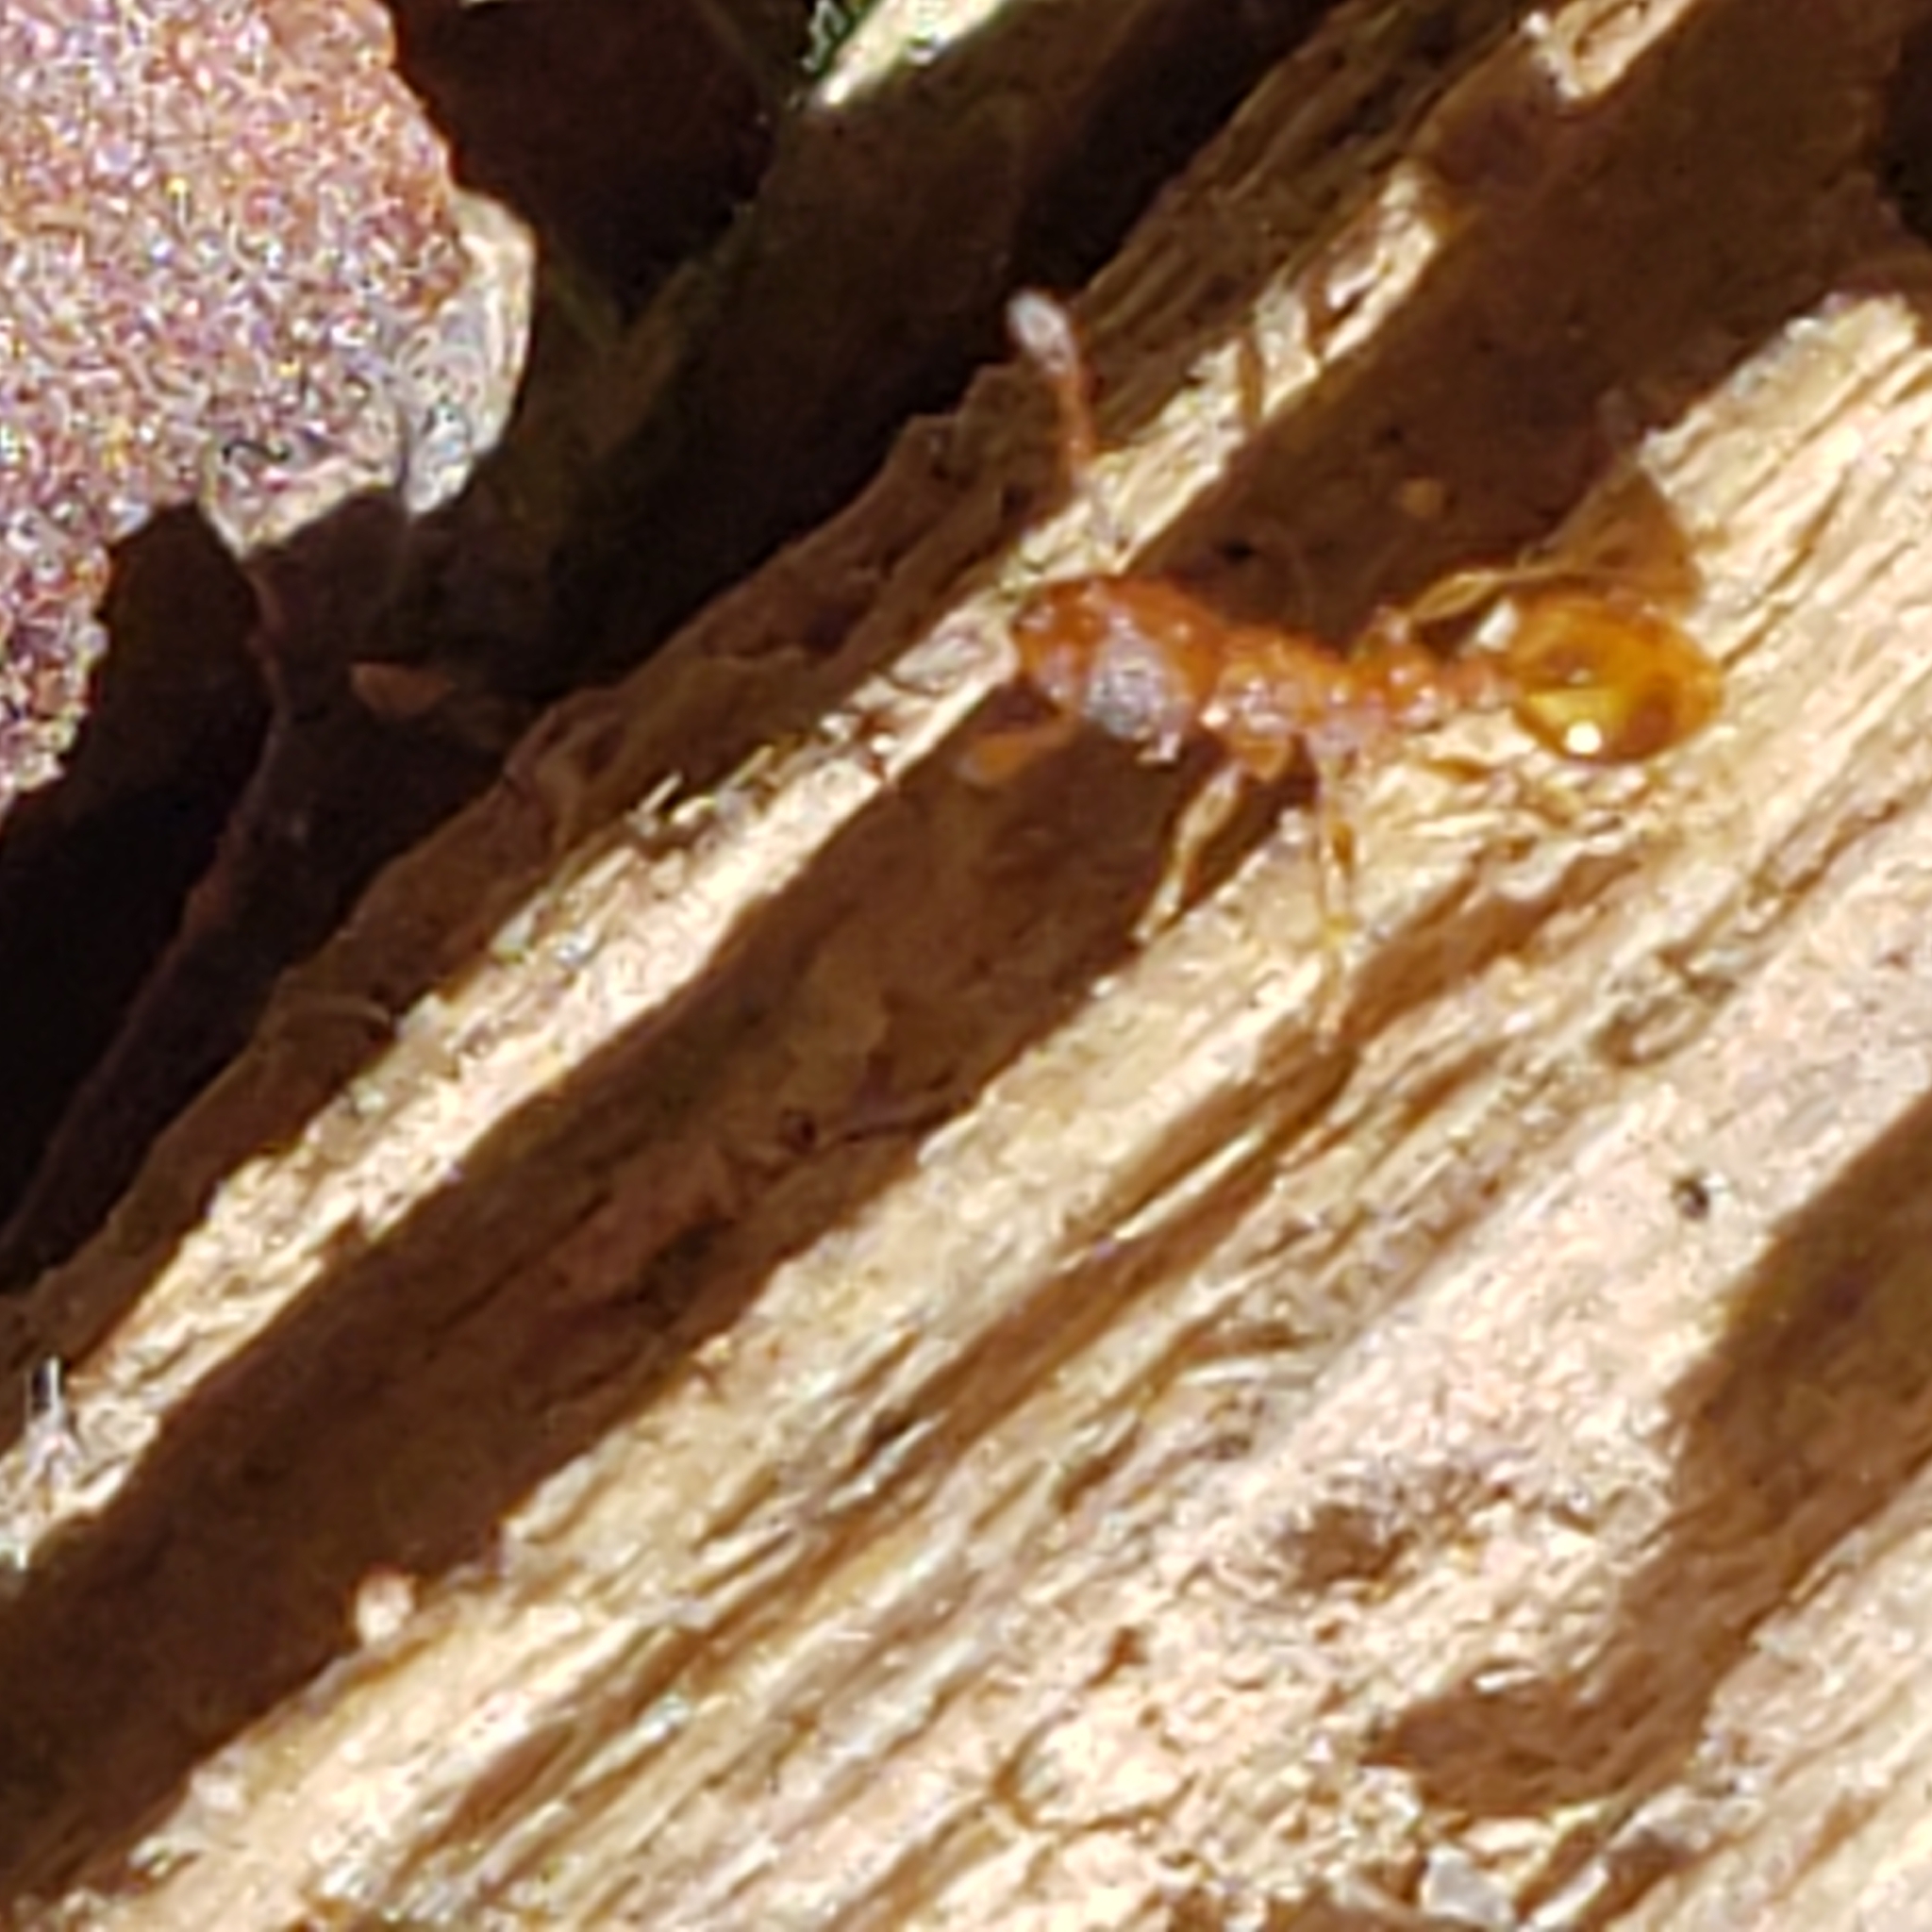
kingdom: Animalia
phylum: Arthropoda
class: Insecta
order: Hymenoptera
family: Formicidae
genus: Temnothorax
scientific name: Temnothorax curvispinosus
